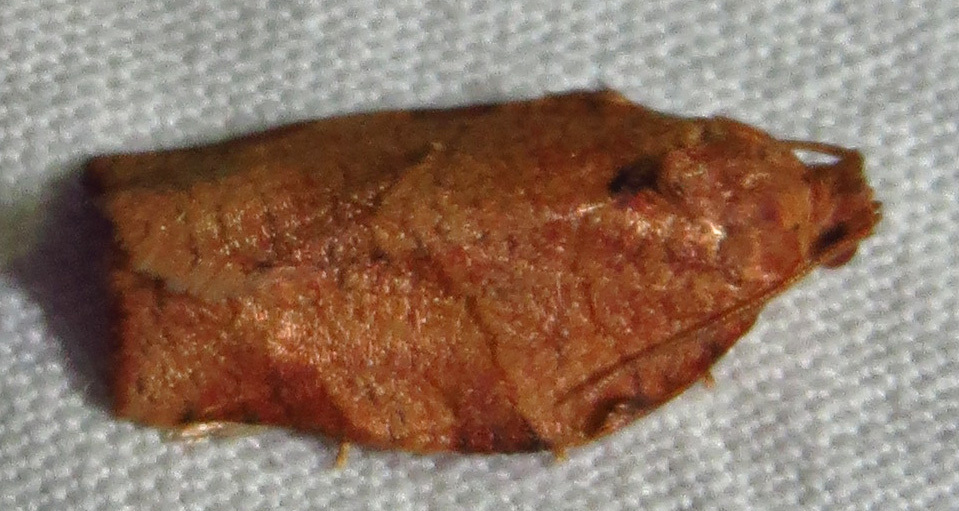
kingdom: Animalia
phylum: Arthropoda
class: Insecta
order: Lepidoptera
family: Tortricidae
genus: Choristoneura
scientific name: Choristoneura rosaceana
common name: Oblique-banded leafroller moth
